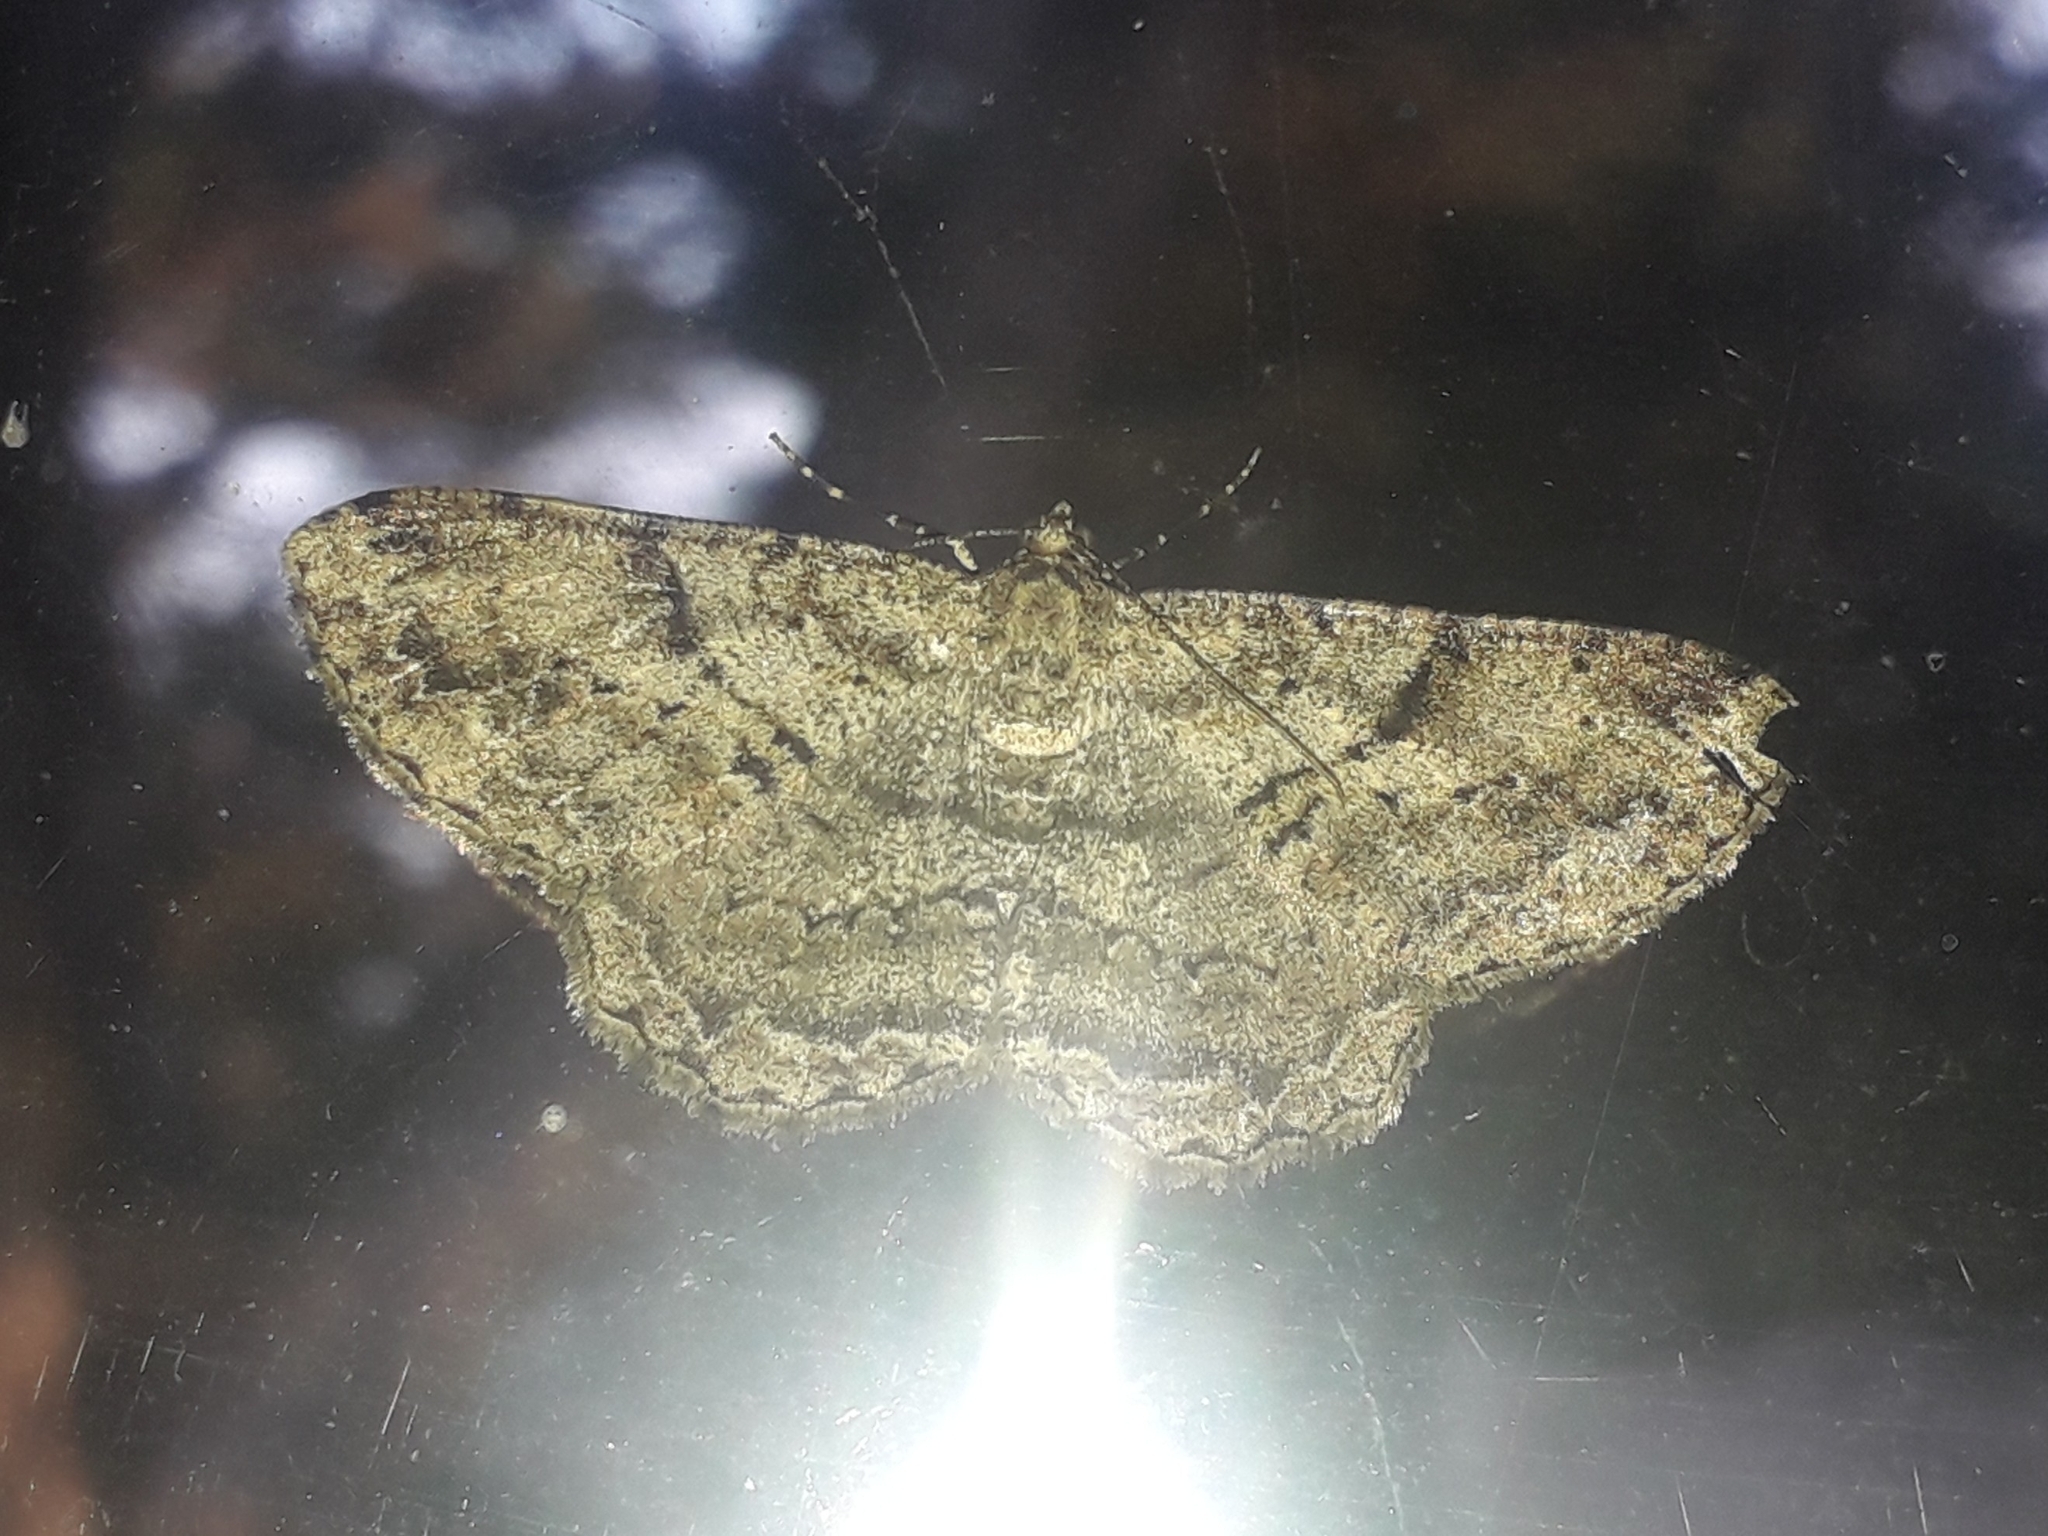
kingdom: Animalia
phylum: Arthropoda
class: Insecta
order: Lepidoptera
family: Geometridae
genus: Peribatodes
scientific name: Peribatodes rhomboidaria
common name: Willow beauty
